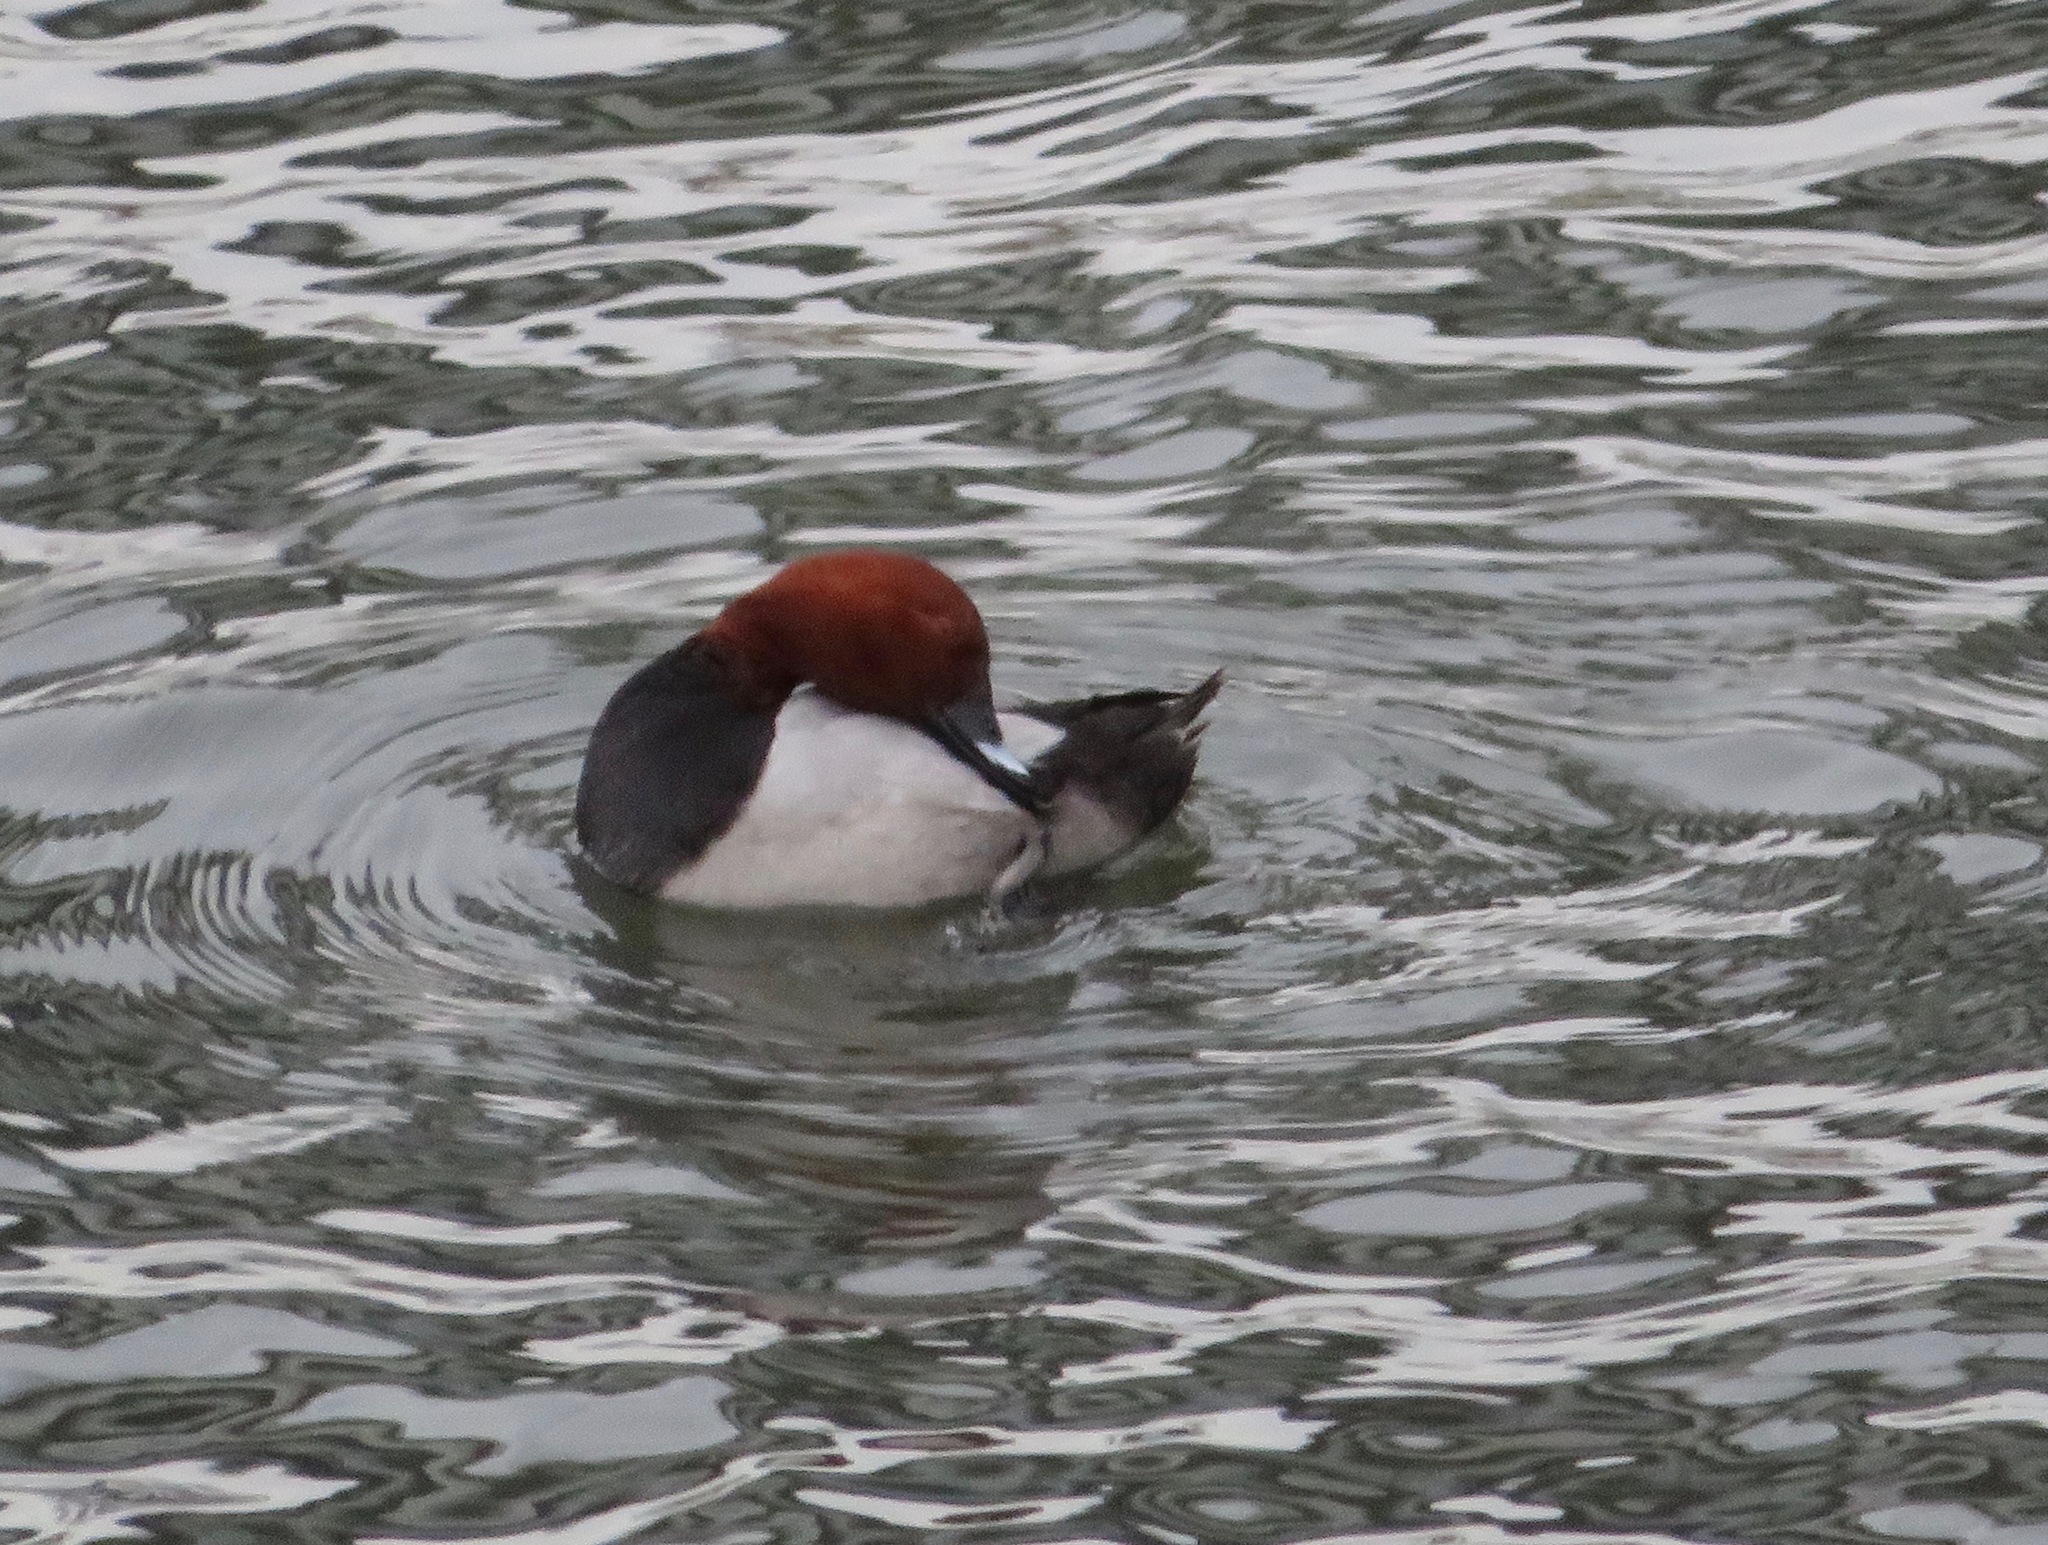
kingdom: Animalia
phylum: Chordata
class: Aves
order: Anseriformes
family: Anatidae
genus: Aythya
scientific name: Aythya ferina
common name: Common pochard
